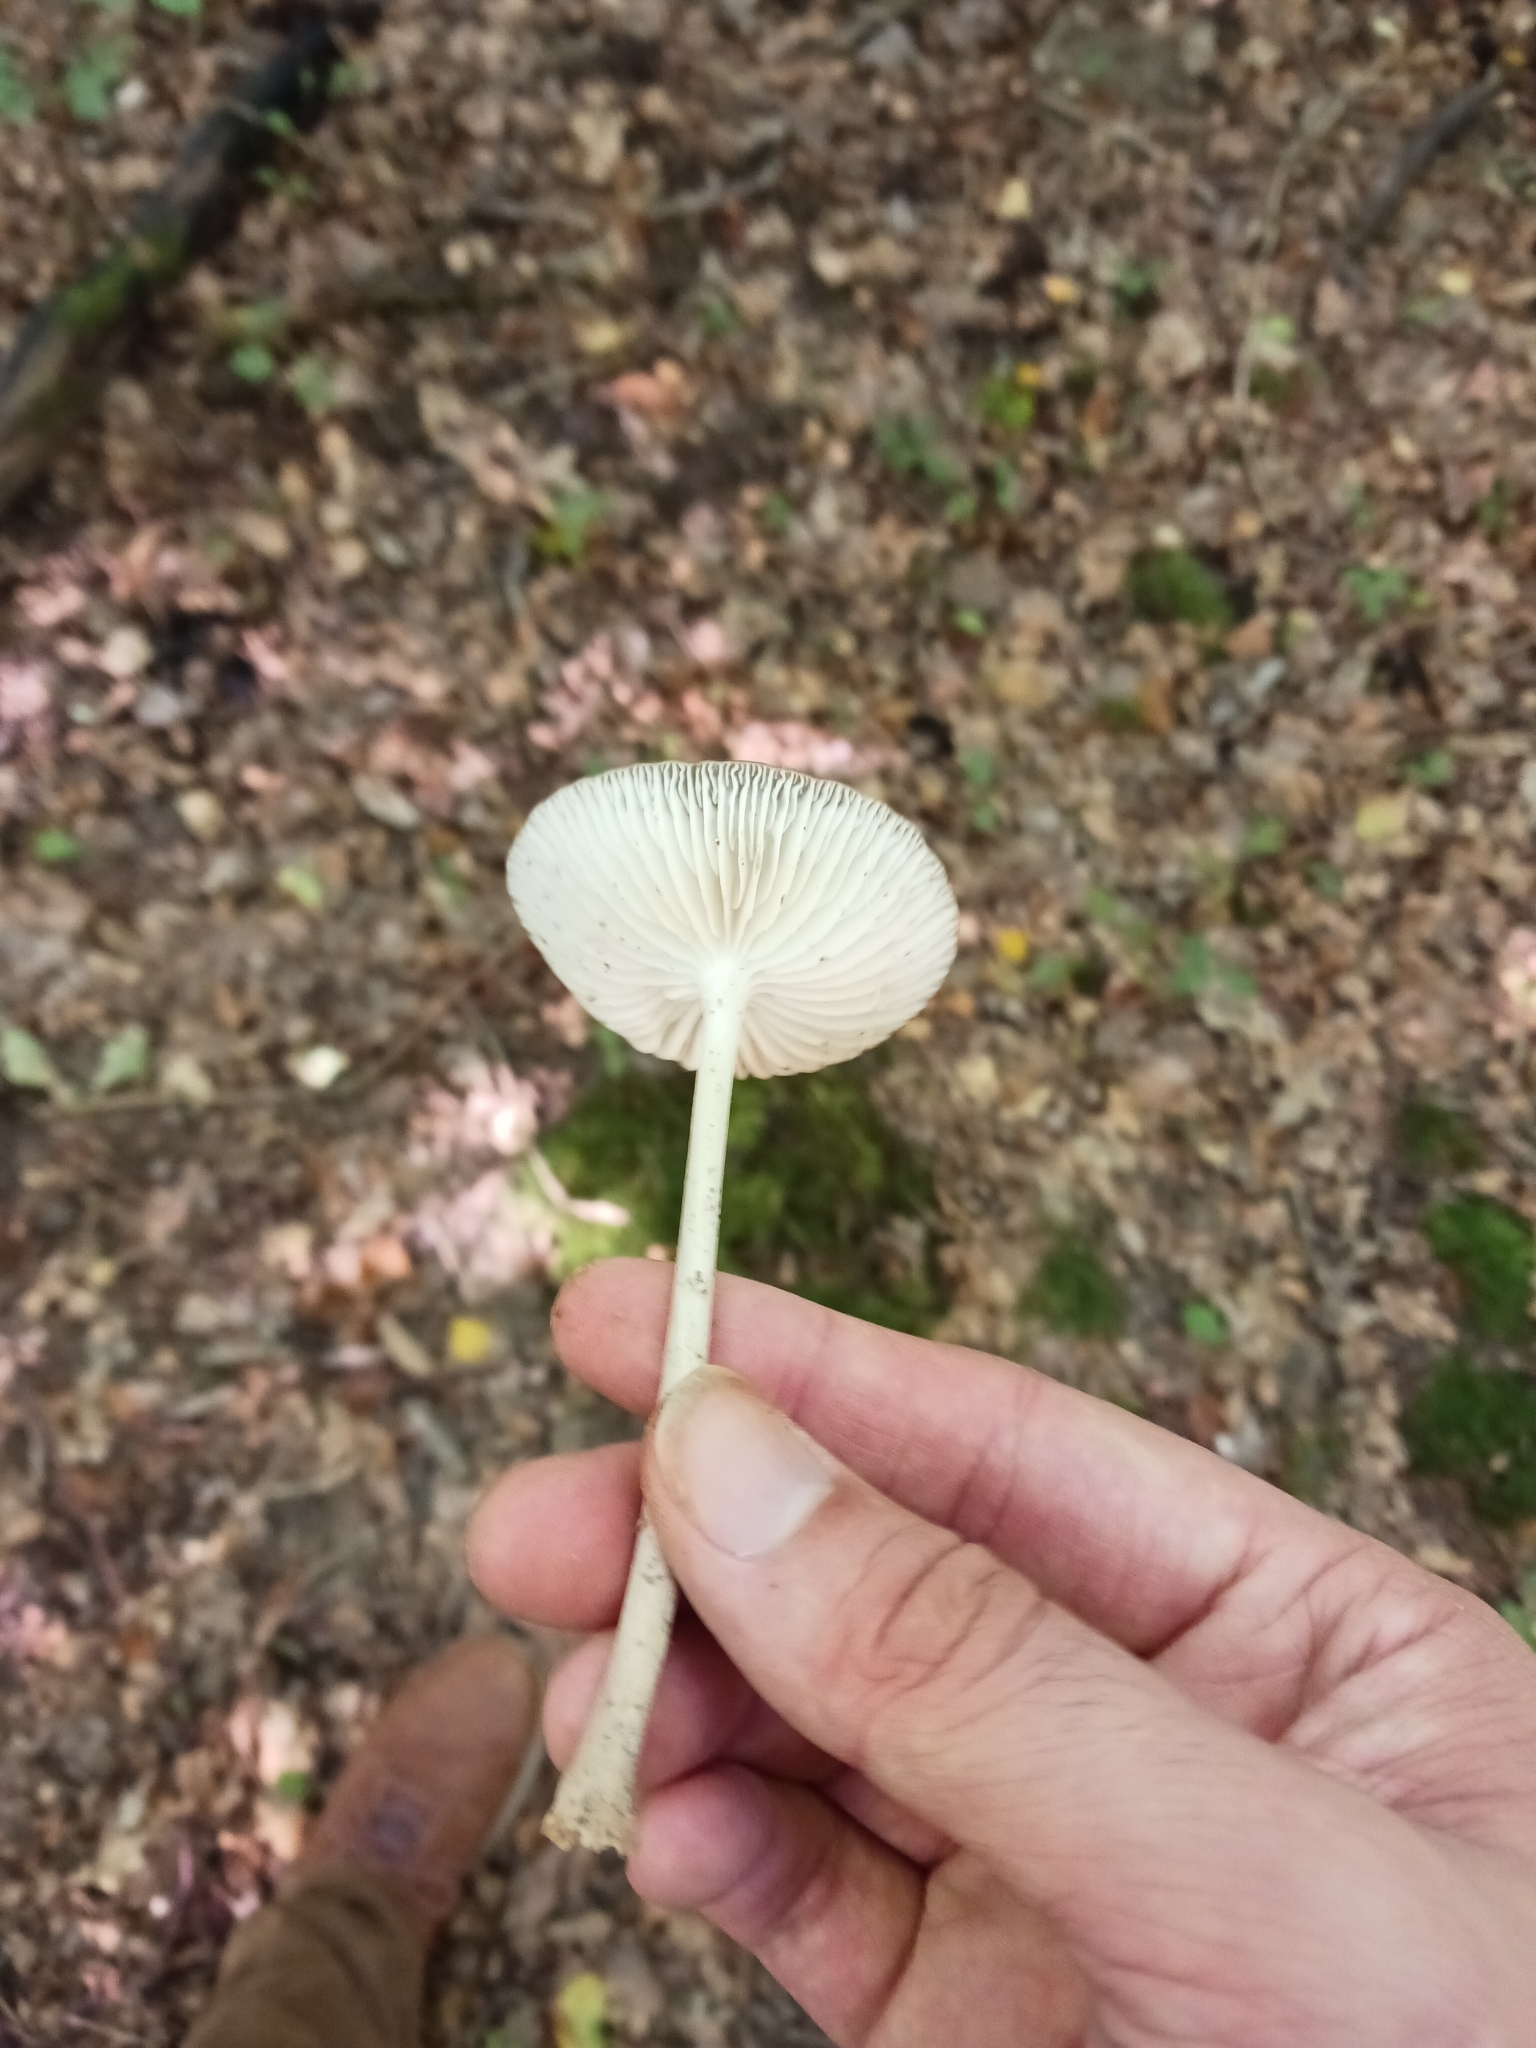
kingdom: Fungi
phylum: Basidiomycota
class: Agaricomycetes
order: Agaricales
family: Physalacriaceae
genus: Hymenopellis
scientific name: Hymenopellis radicata
